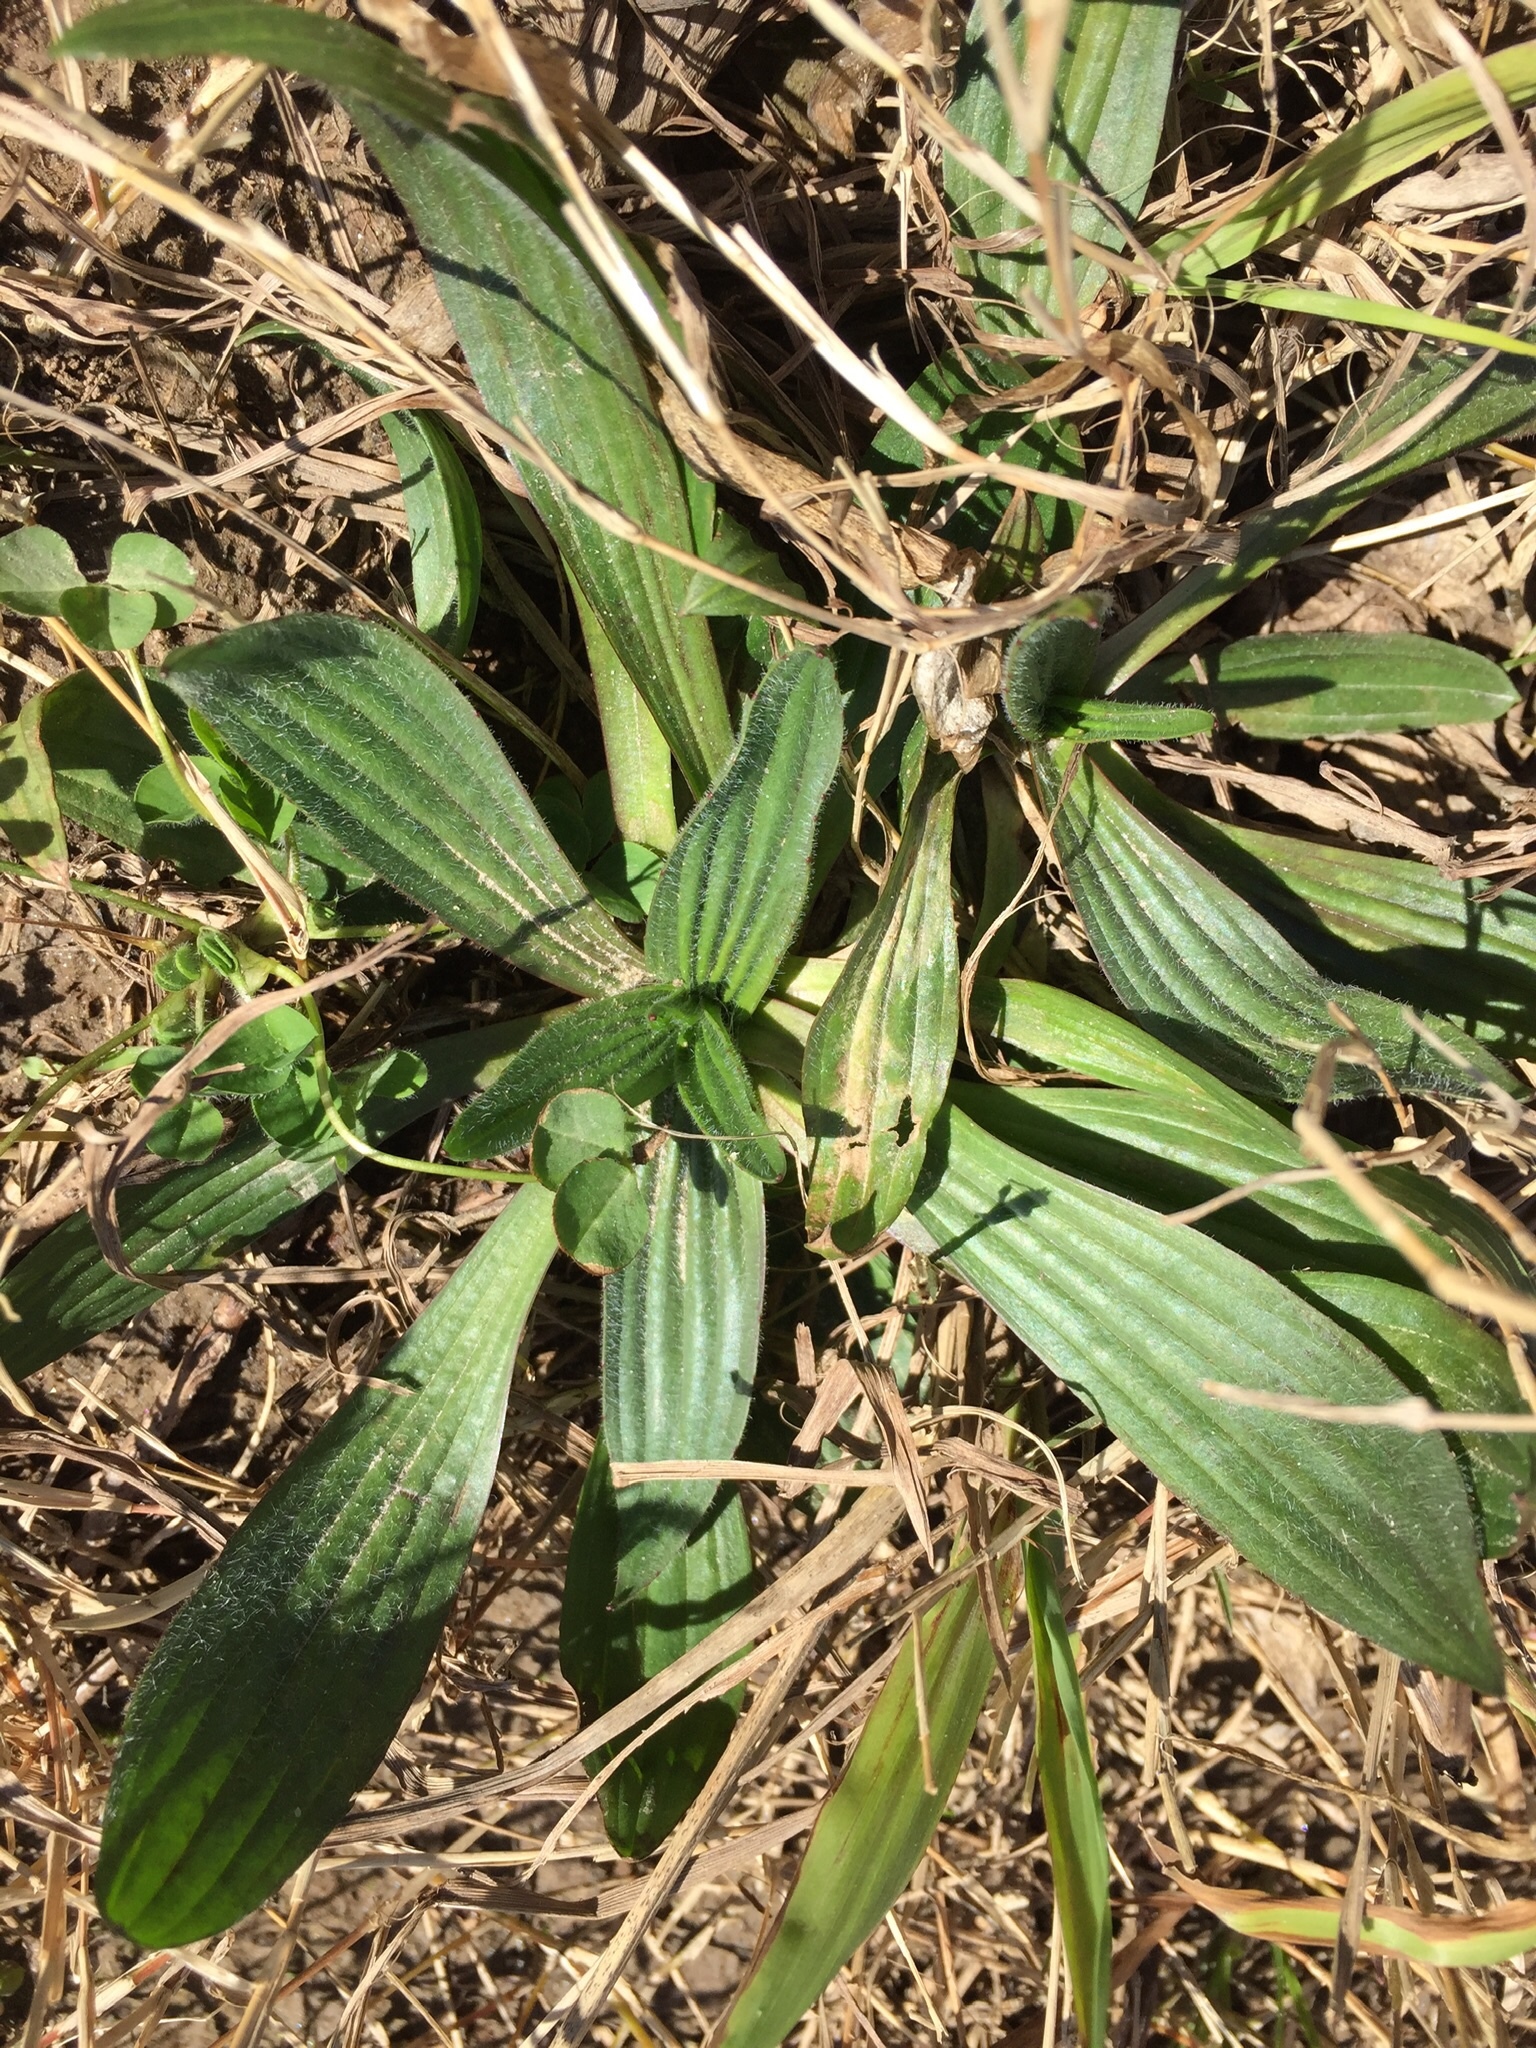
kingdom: Plantae
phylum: Tracheophyta
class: Magnoliopsida
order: Lamiales
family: Plantaginaceae
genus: Plantago
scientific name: Plantago lanceolata
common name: Ribwort plantain
